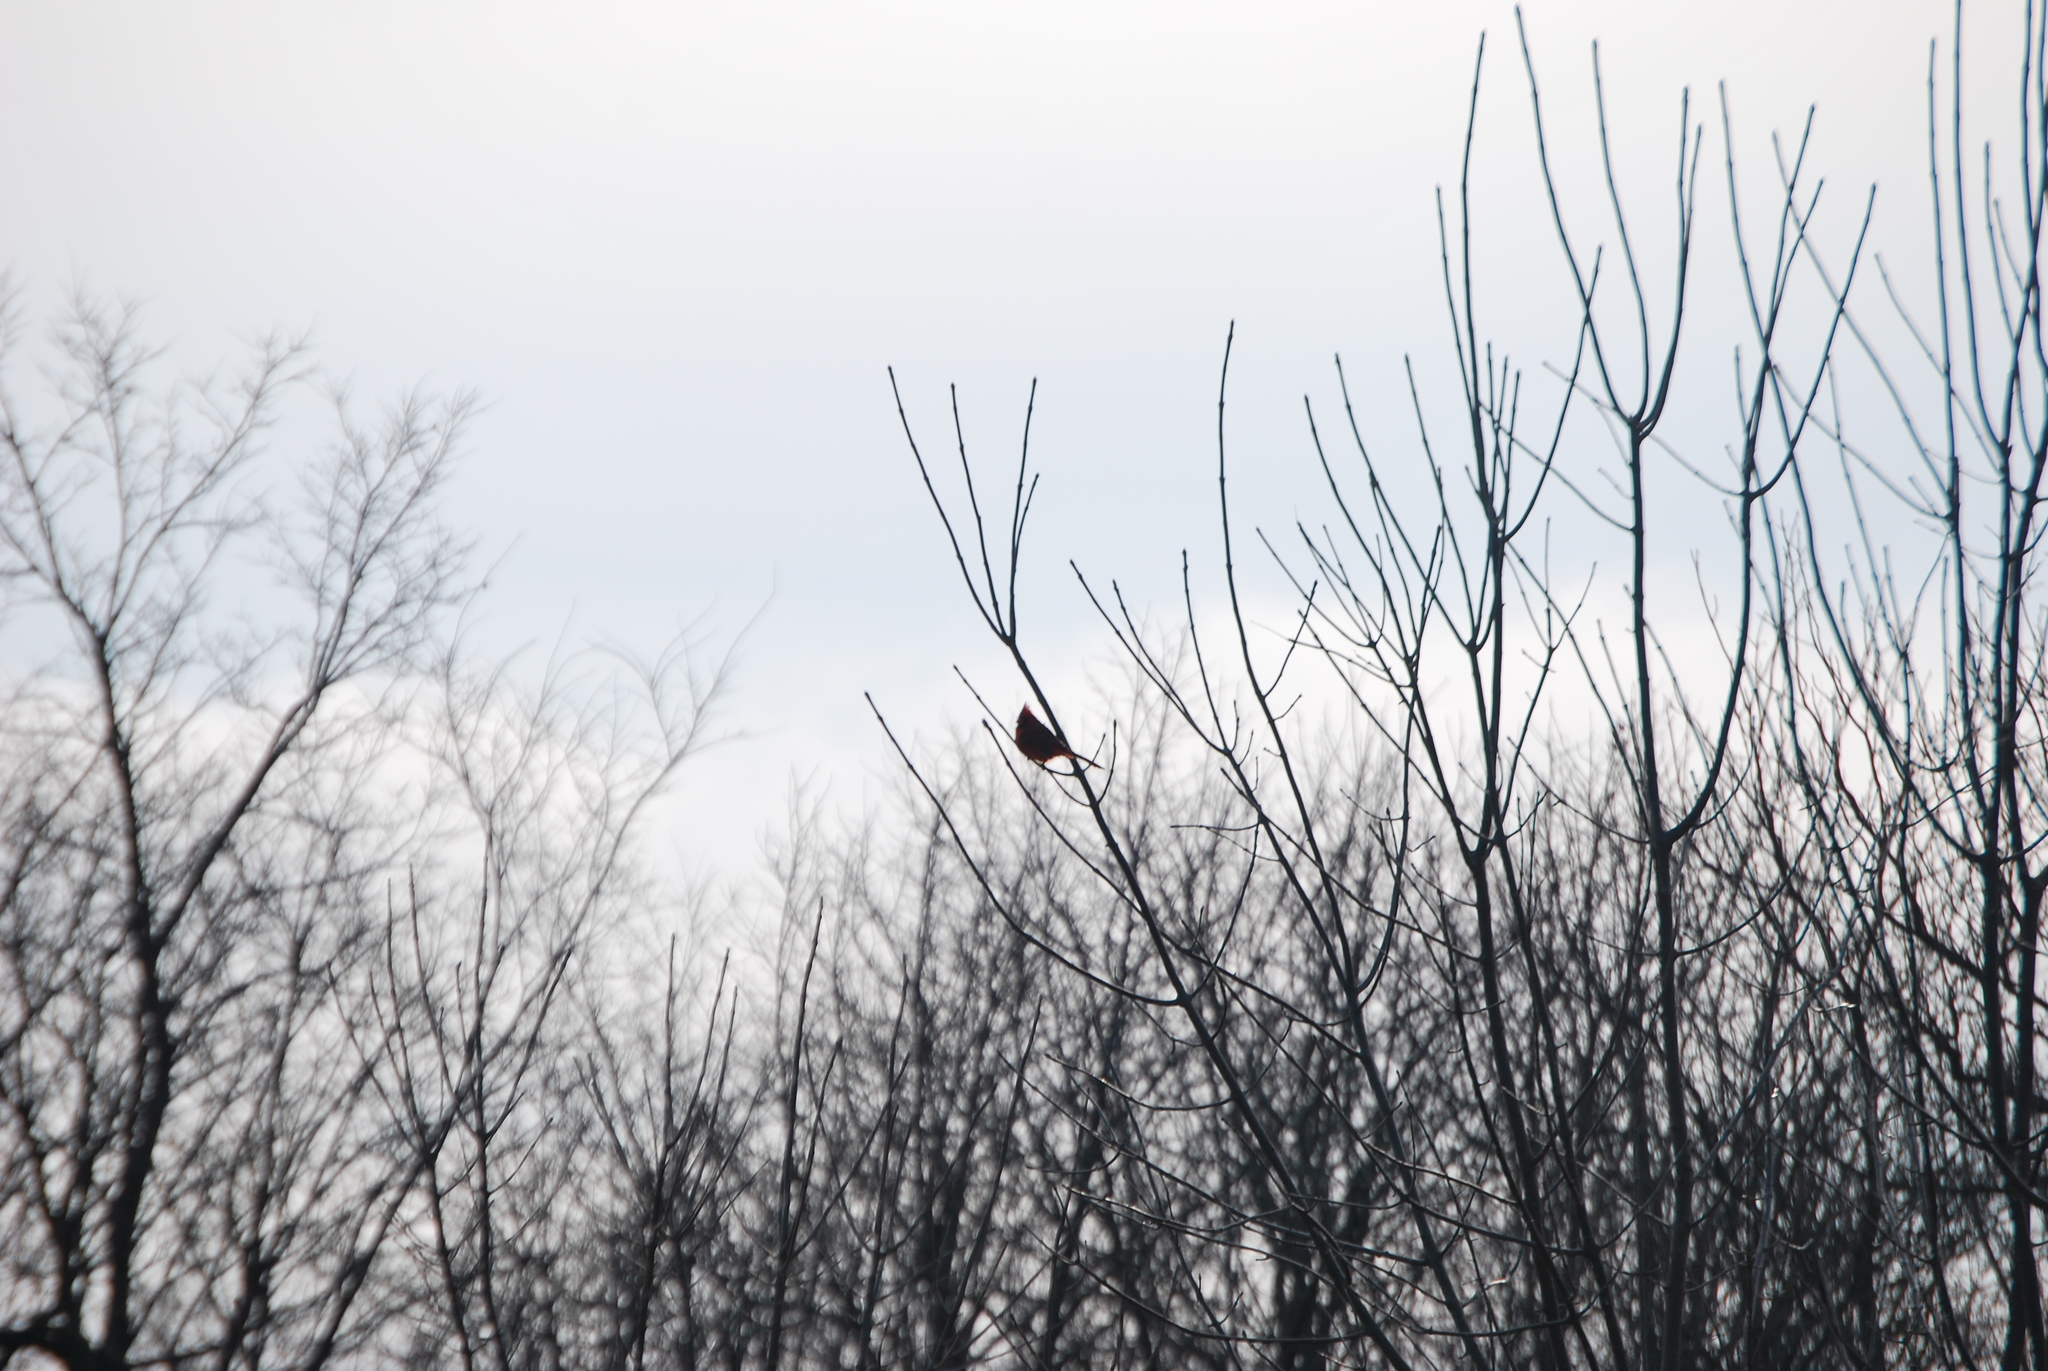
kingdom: Animalia
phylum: Chordata
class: Aves
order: Passeriformes
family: Cardinalidae
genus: Cardinalis
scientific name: Cardinalis cardinalis
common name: Northern cardinal
